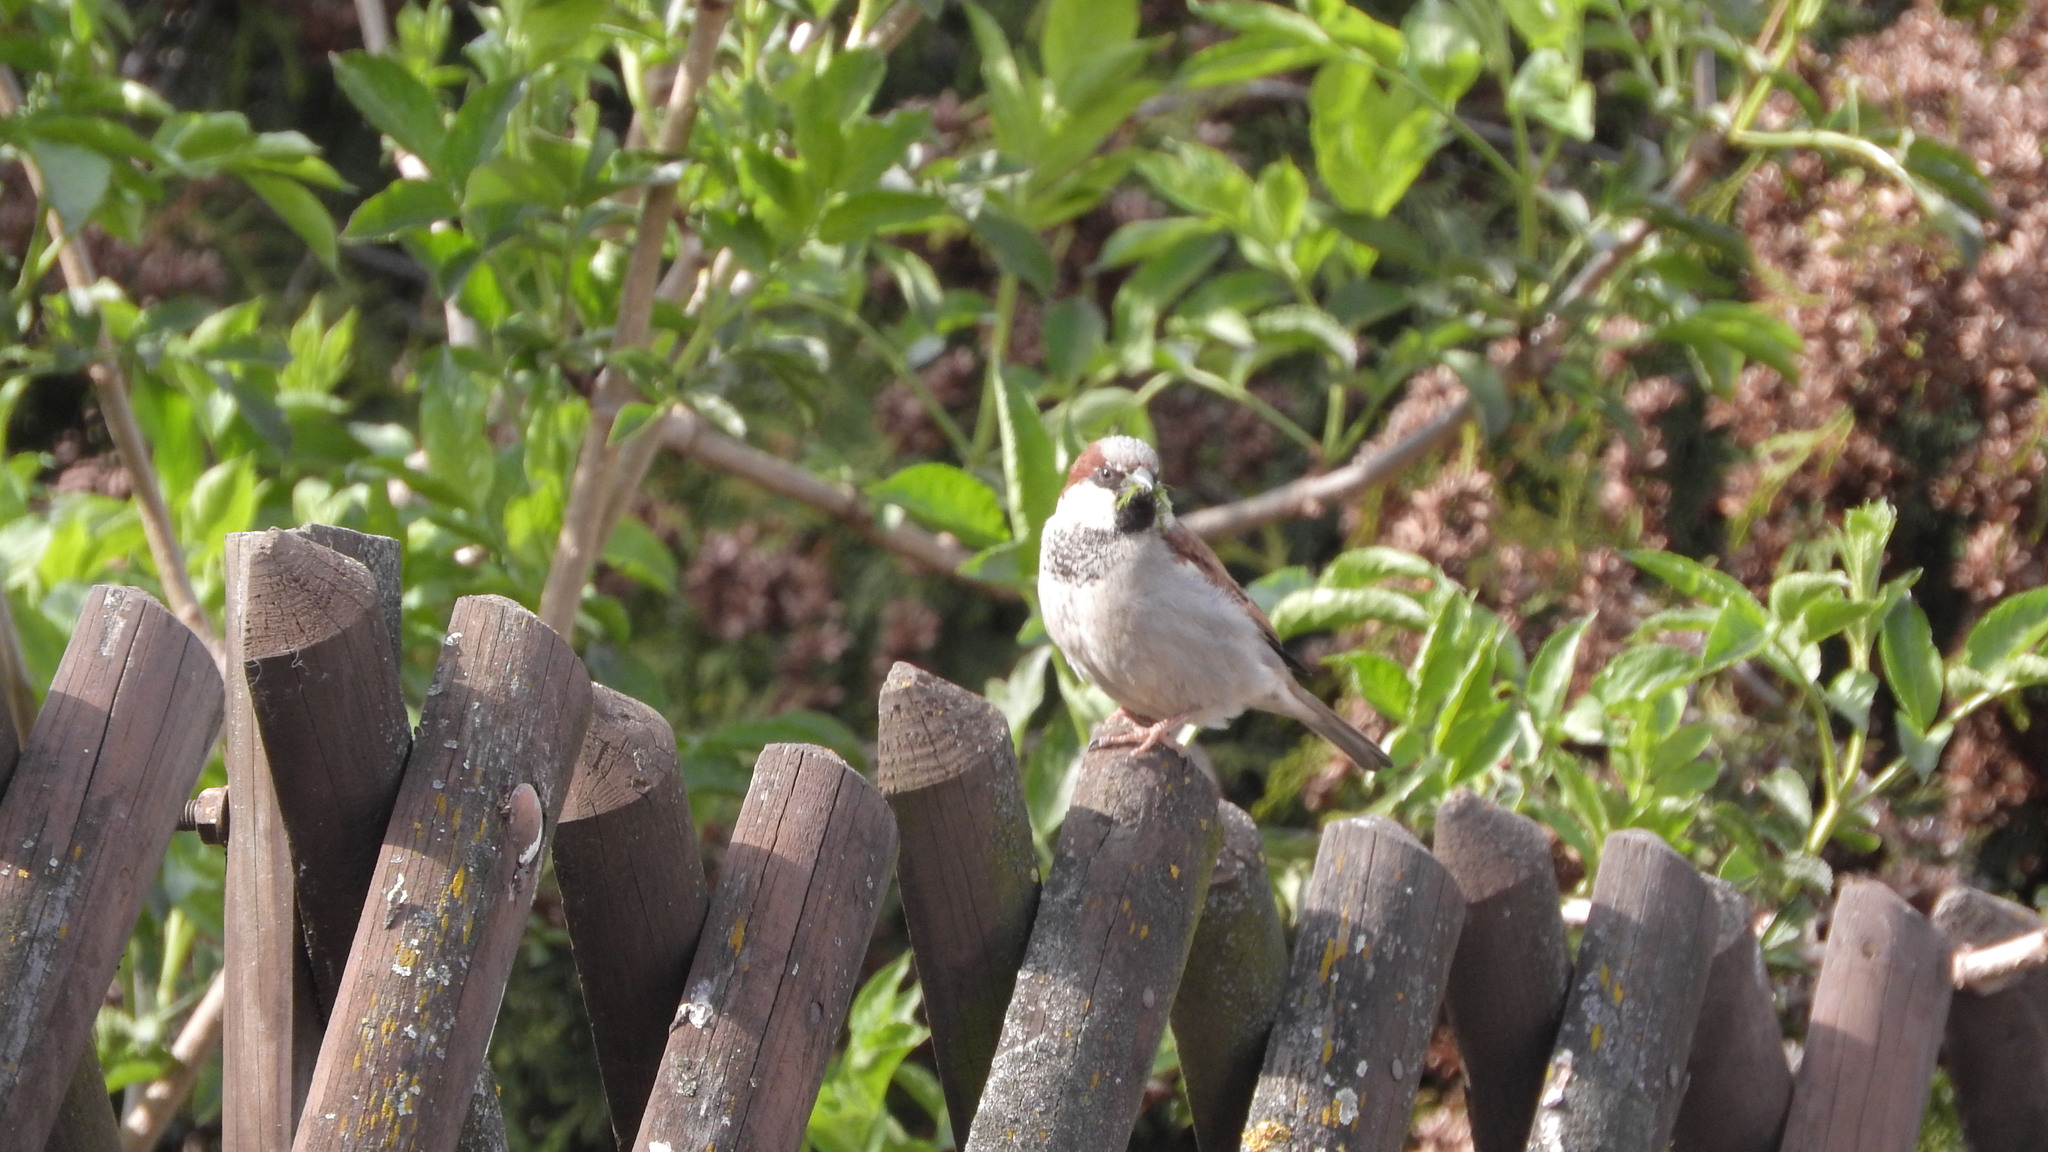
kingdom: Animalia
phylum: Chordata
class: Aves
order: Passeriformes
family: Passeridae
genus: Passer
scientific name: Passer domesticus
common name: House sparrow
